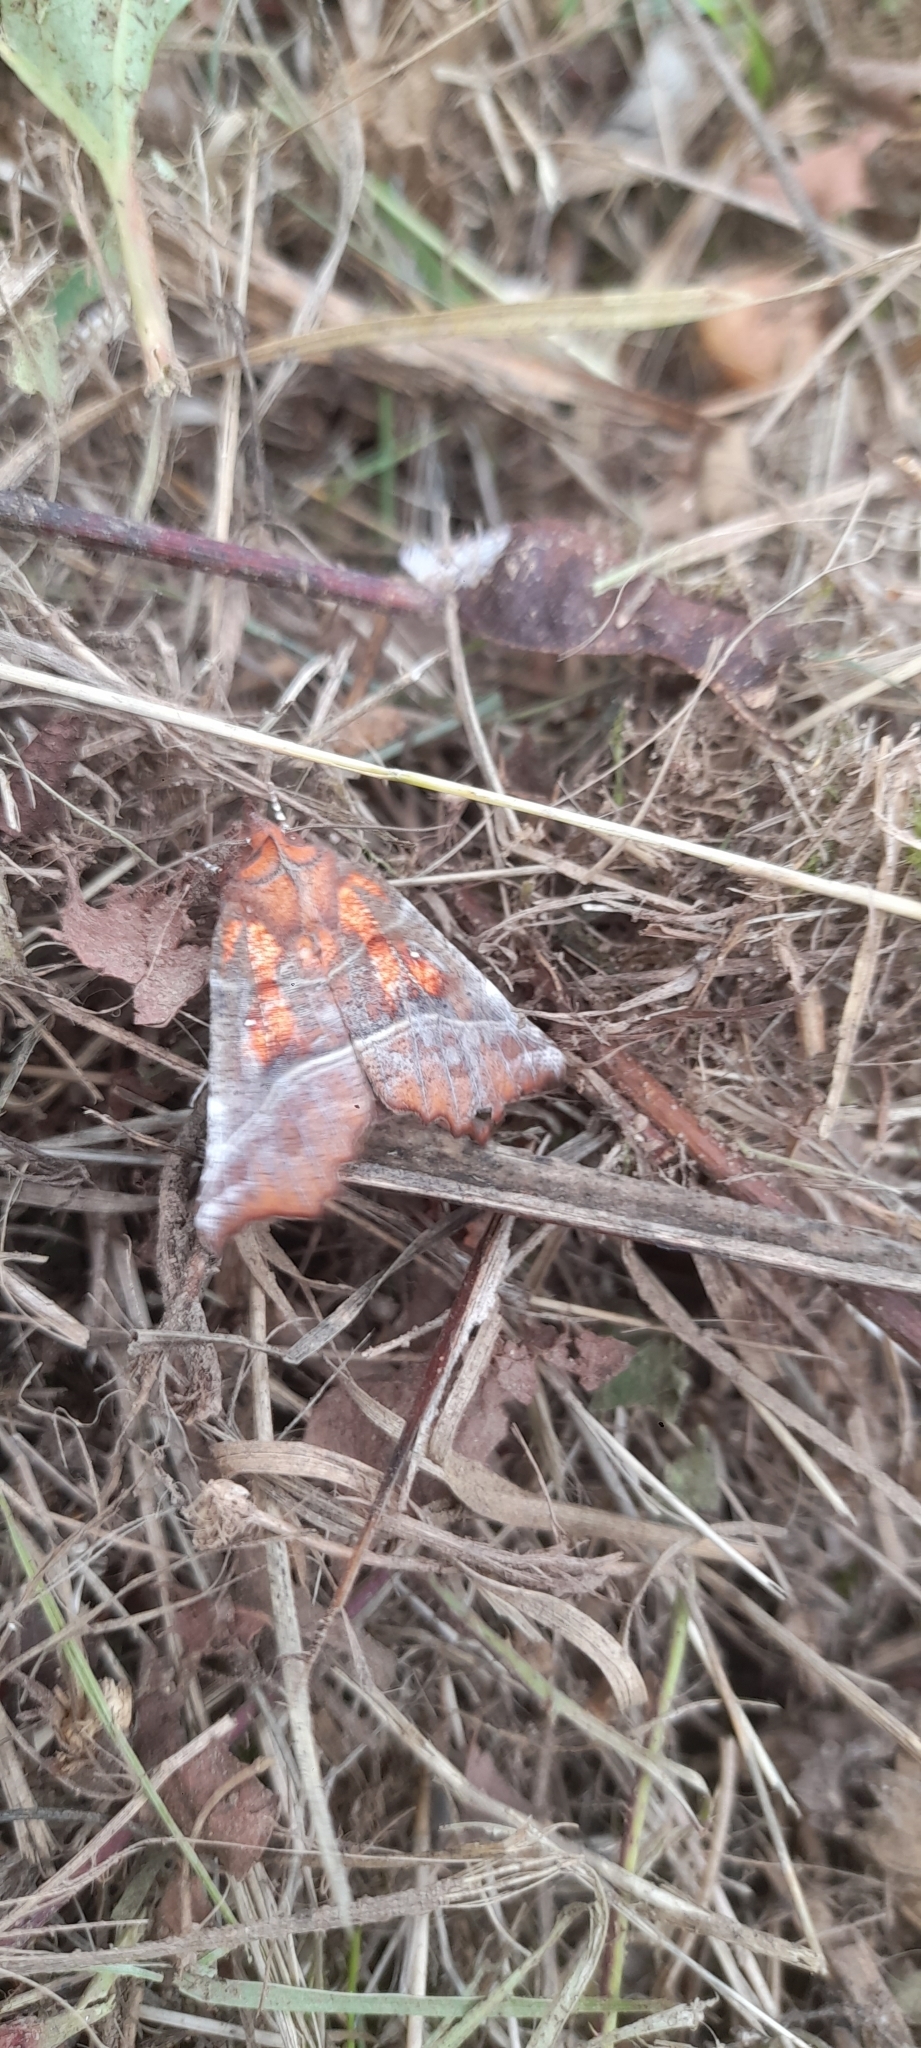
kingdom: Animalia
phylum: Arthropoda
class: Insecta
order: Lepidoptera
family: Erebidae
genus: Scoliopteryx
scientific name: Scoliopteryx libatrix
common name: Herald
